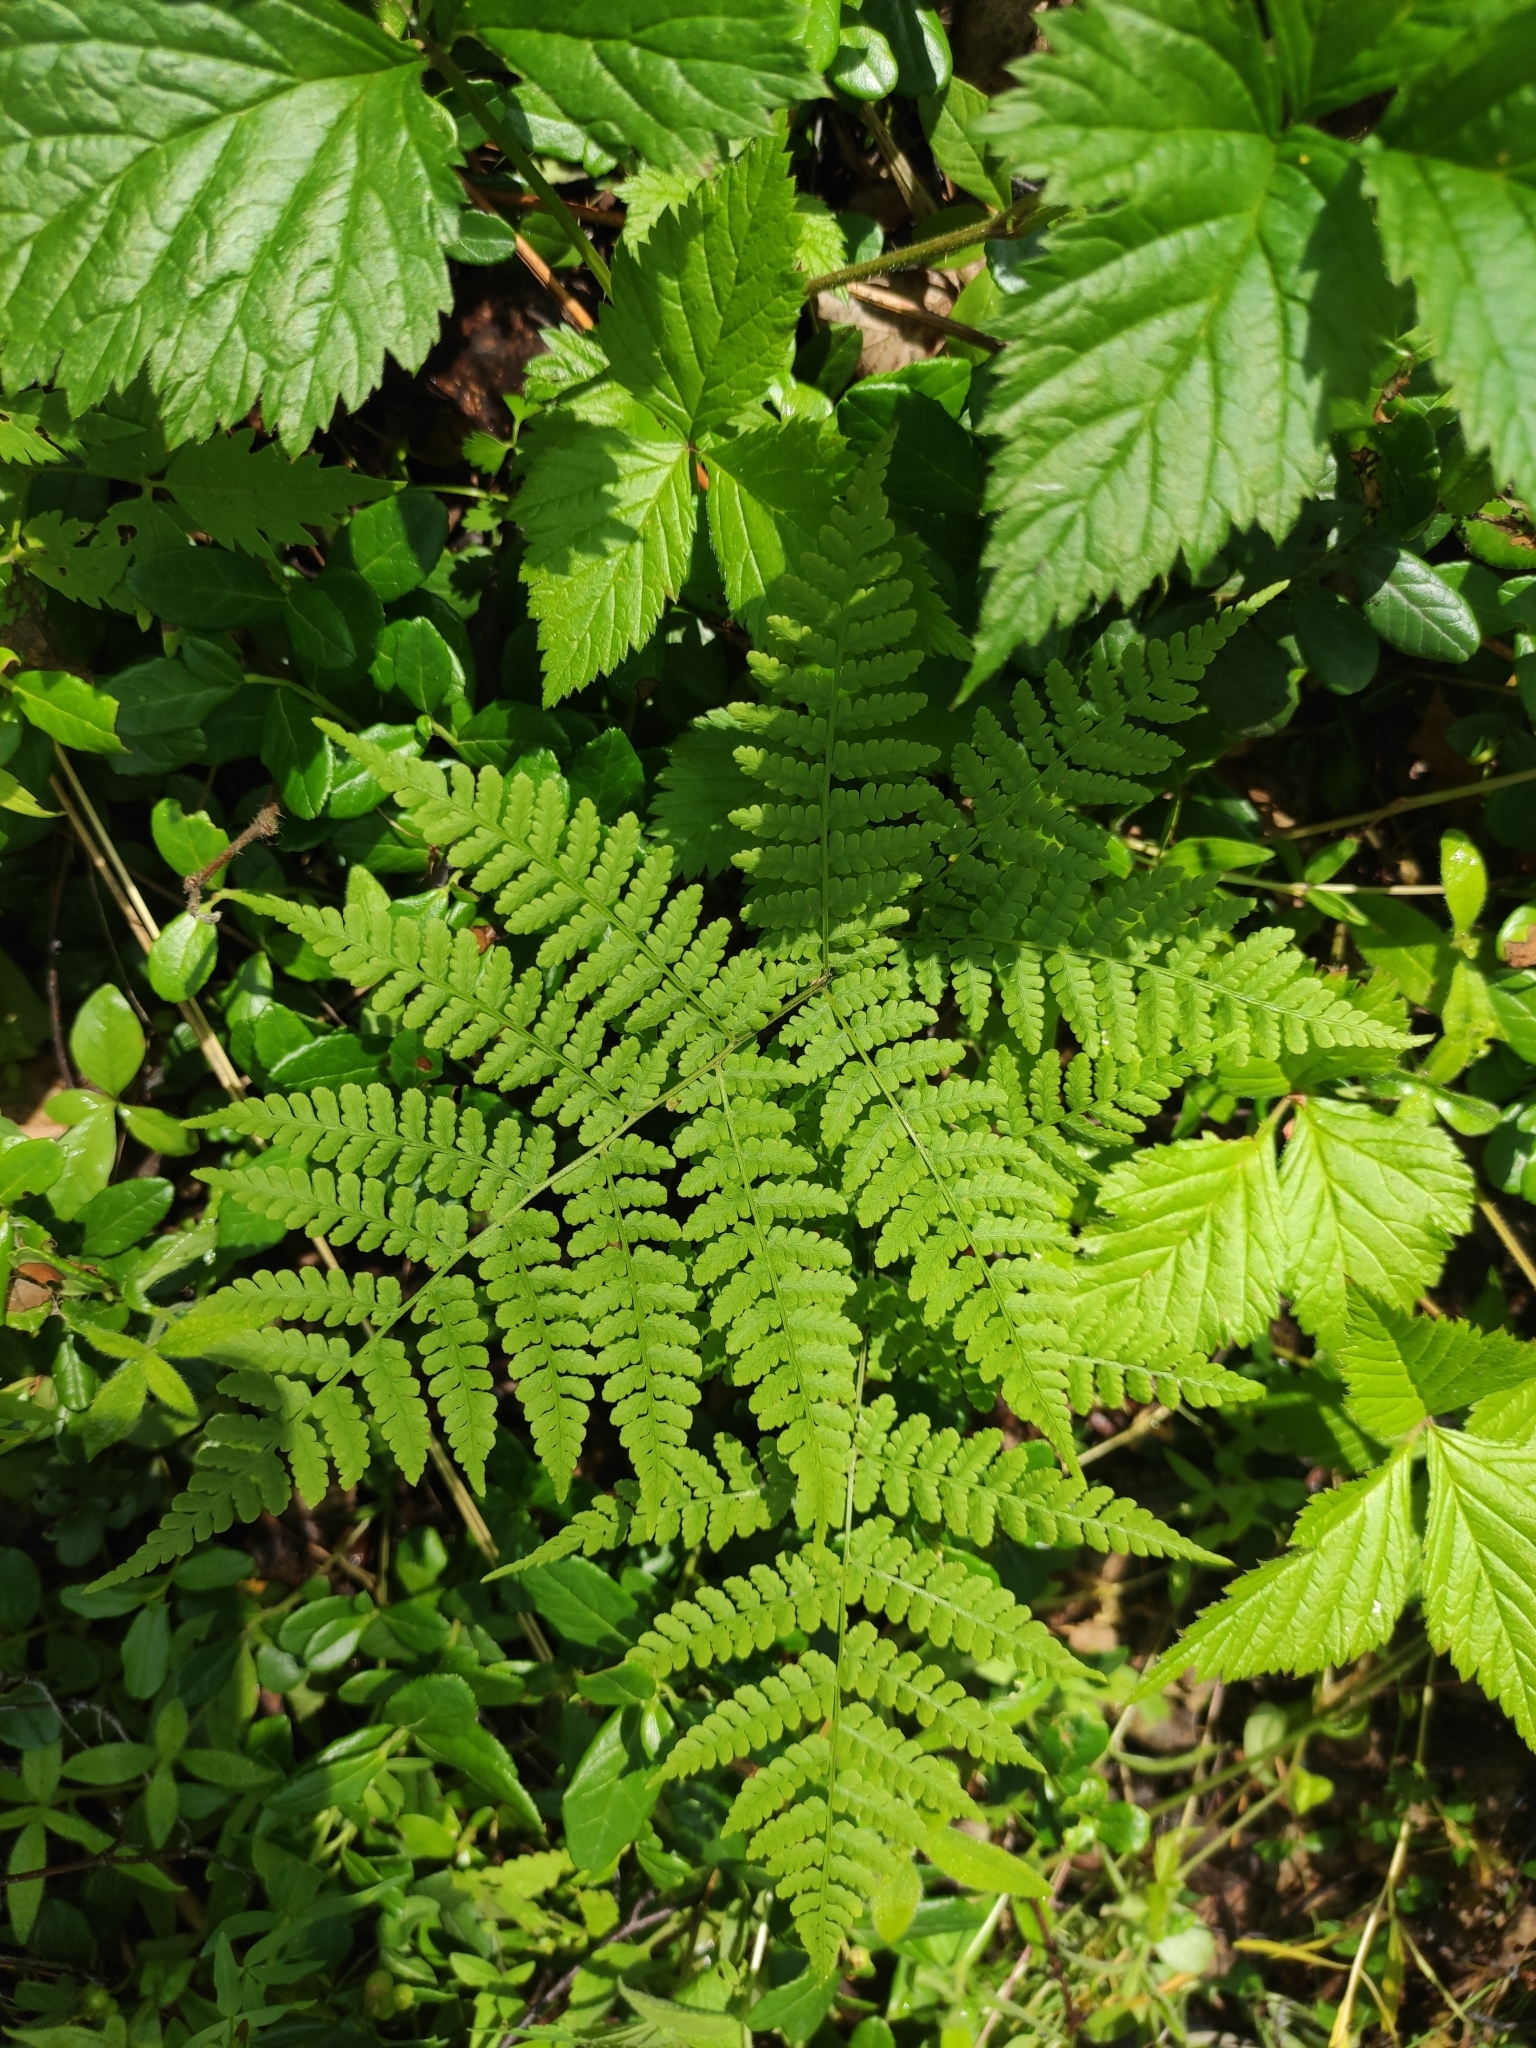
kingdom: Plantae
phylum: Tracheophyta
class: Polypodiopsida
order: Polypodiales
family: Athyriaceae
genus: Diplazium
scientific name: Diplazium sibiricum
